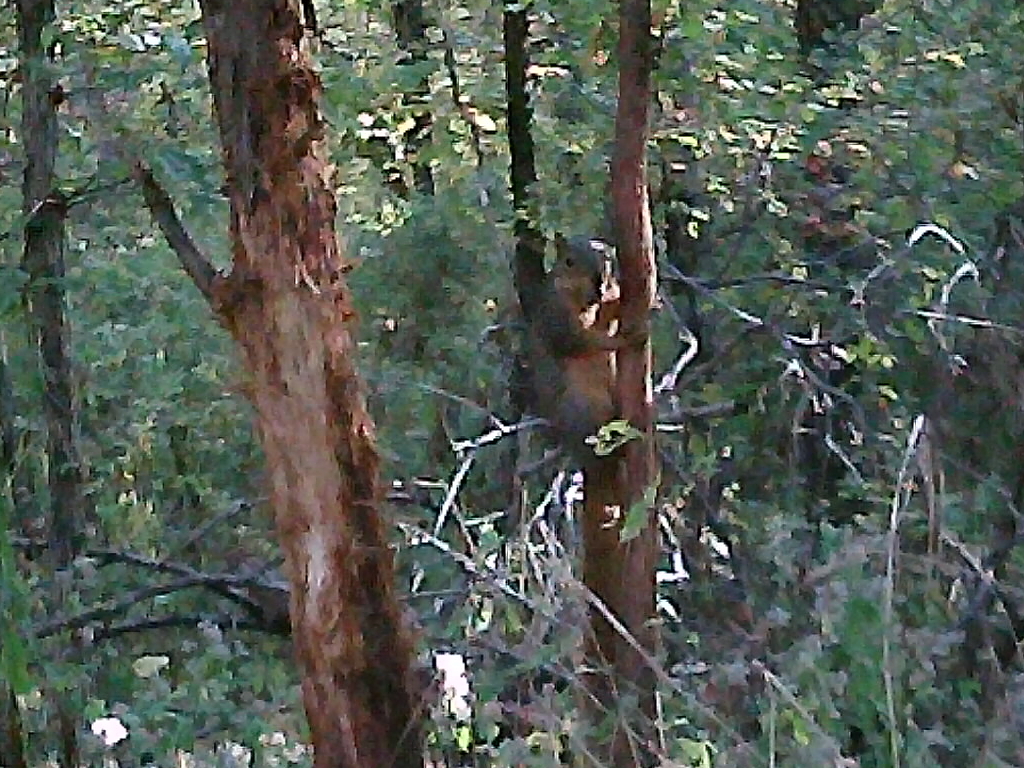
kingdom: Animalia
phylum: Chordata
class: Mammalia
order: Rodentia
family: Sciuridae
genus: Sciurus
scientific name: Sciurus niger
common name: Fox squirrel
